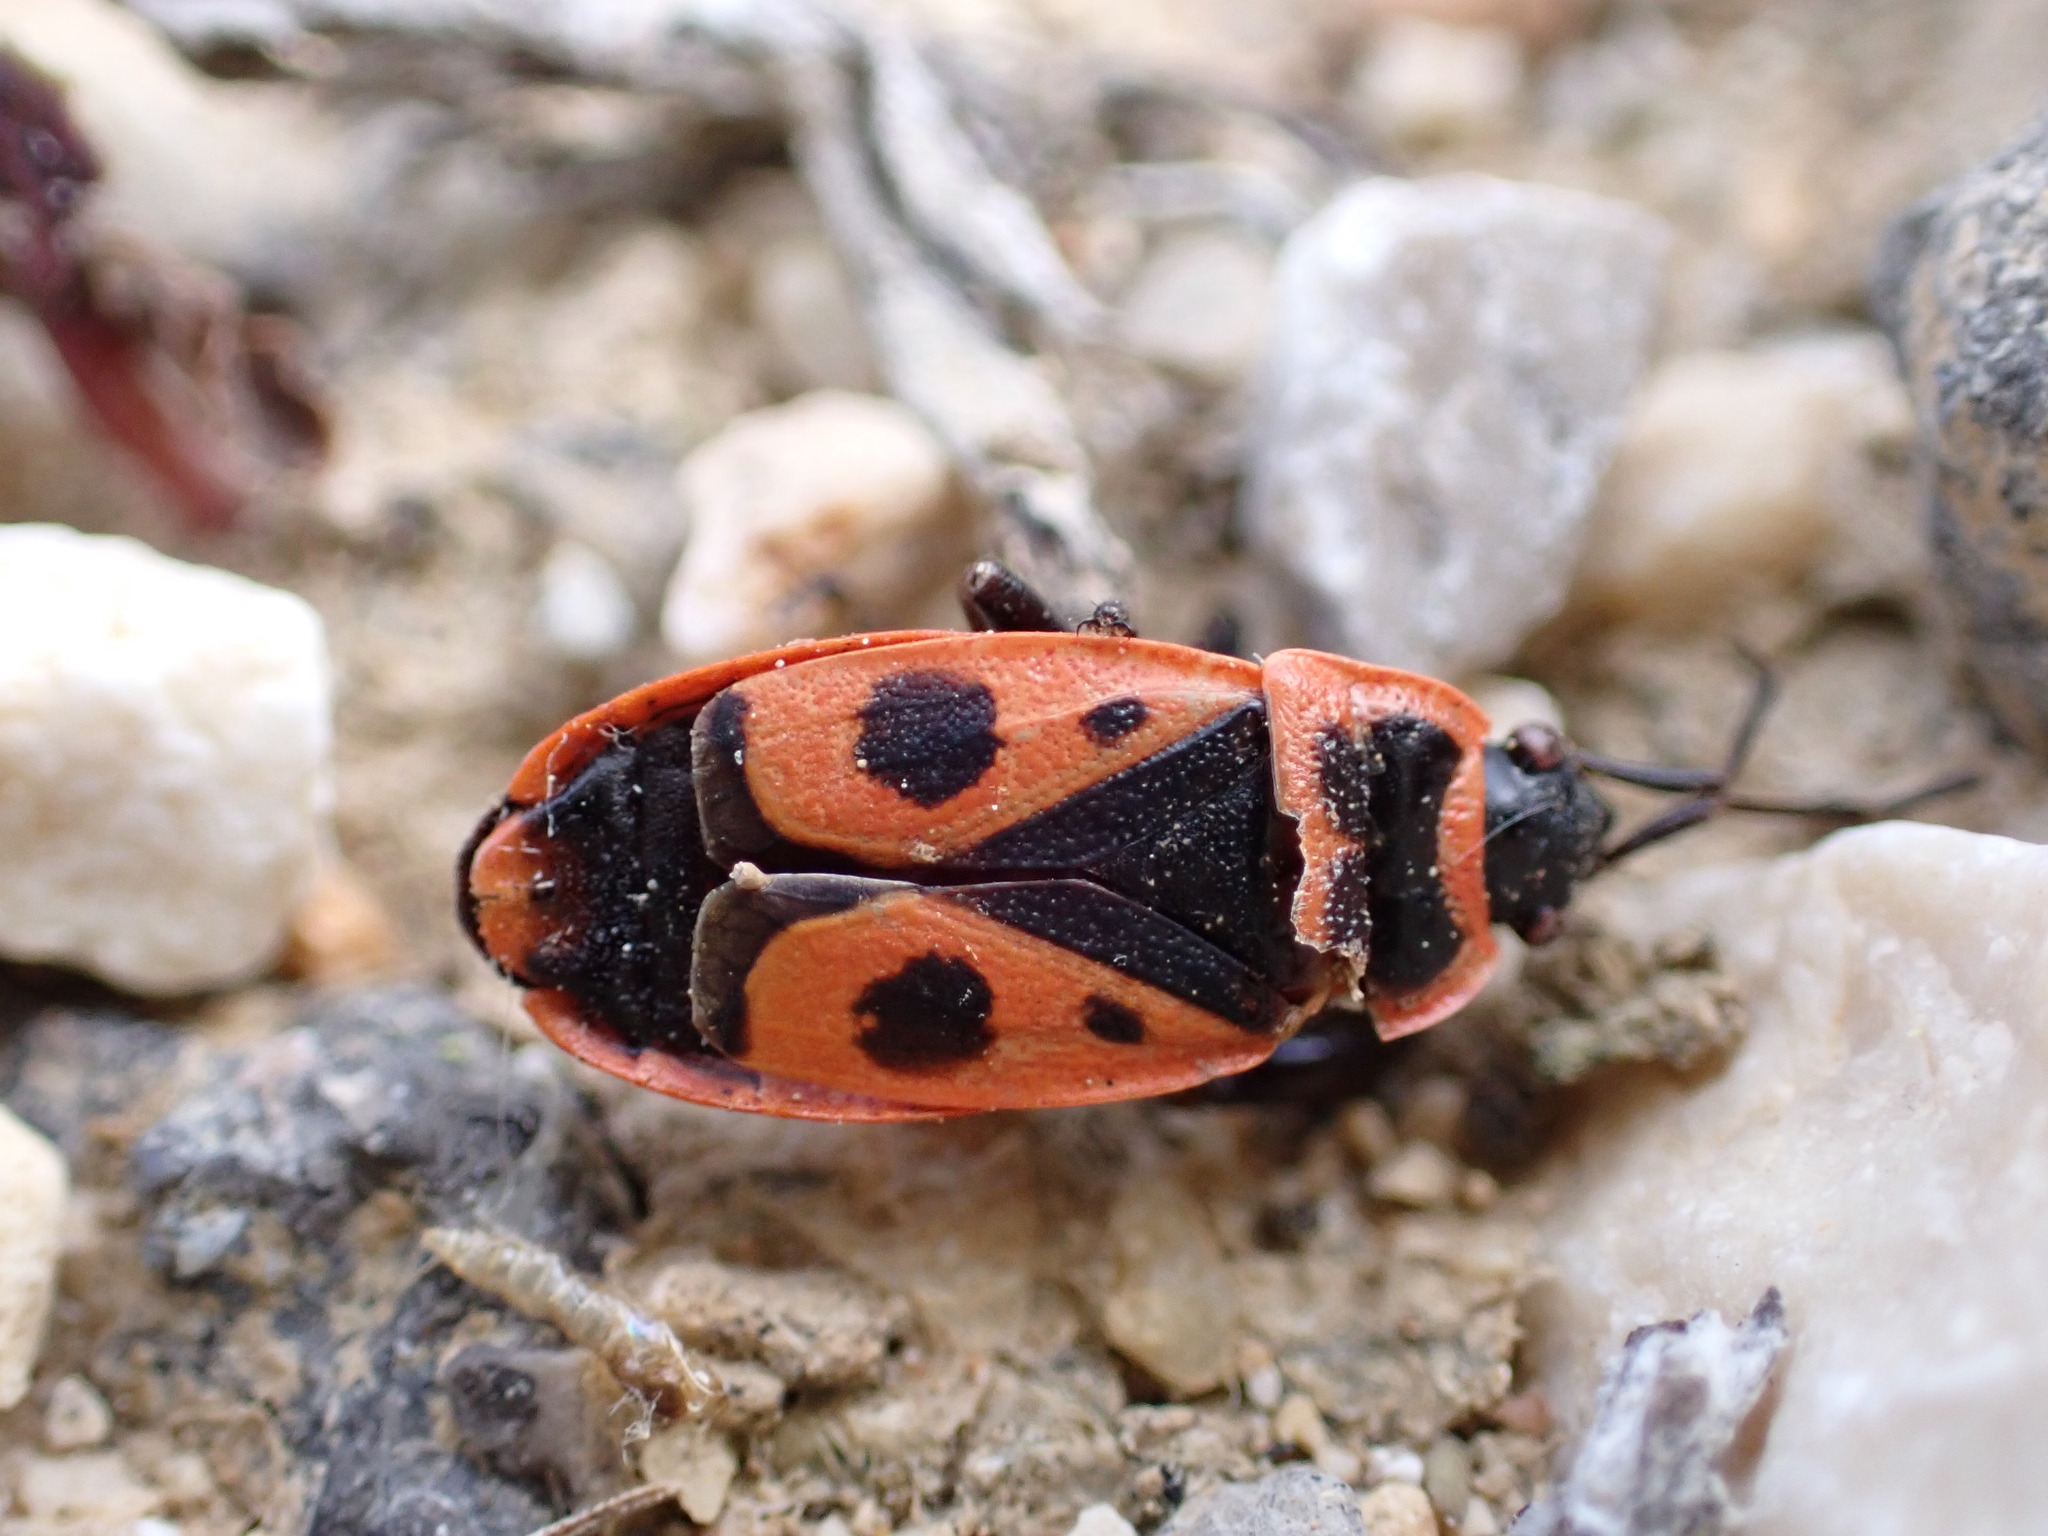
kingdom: Animalia
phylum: Arthropoda
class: Insecta
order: Hemiptera
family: Pyrrhocoridae
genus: Pyrrhocoris
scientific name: Pyrrhocoris apterus
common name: Firebug
